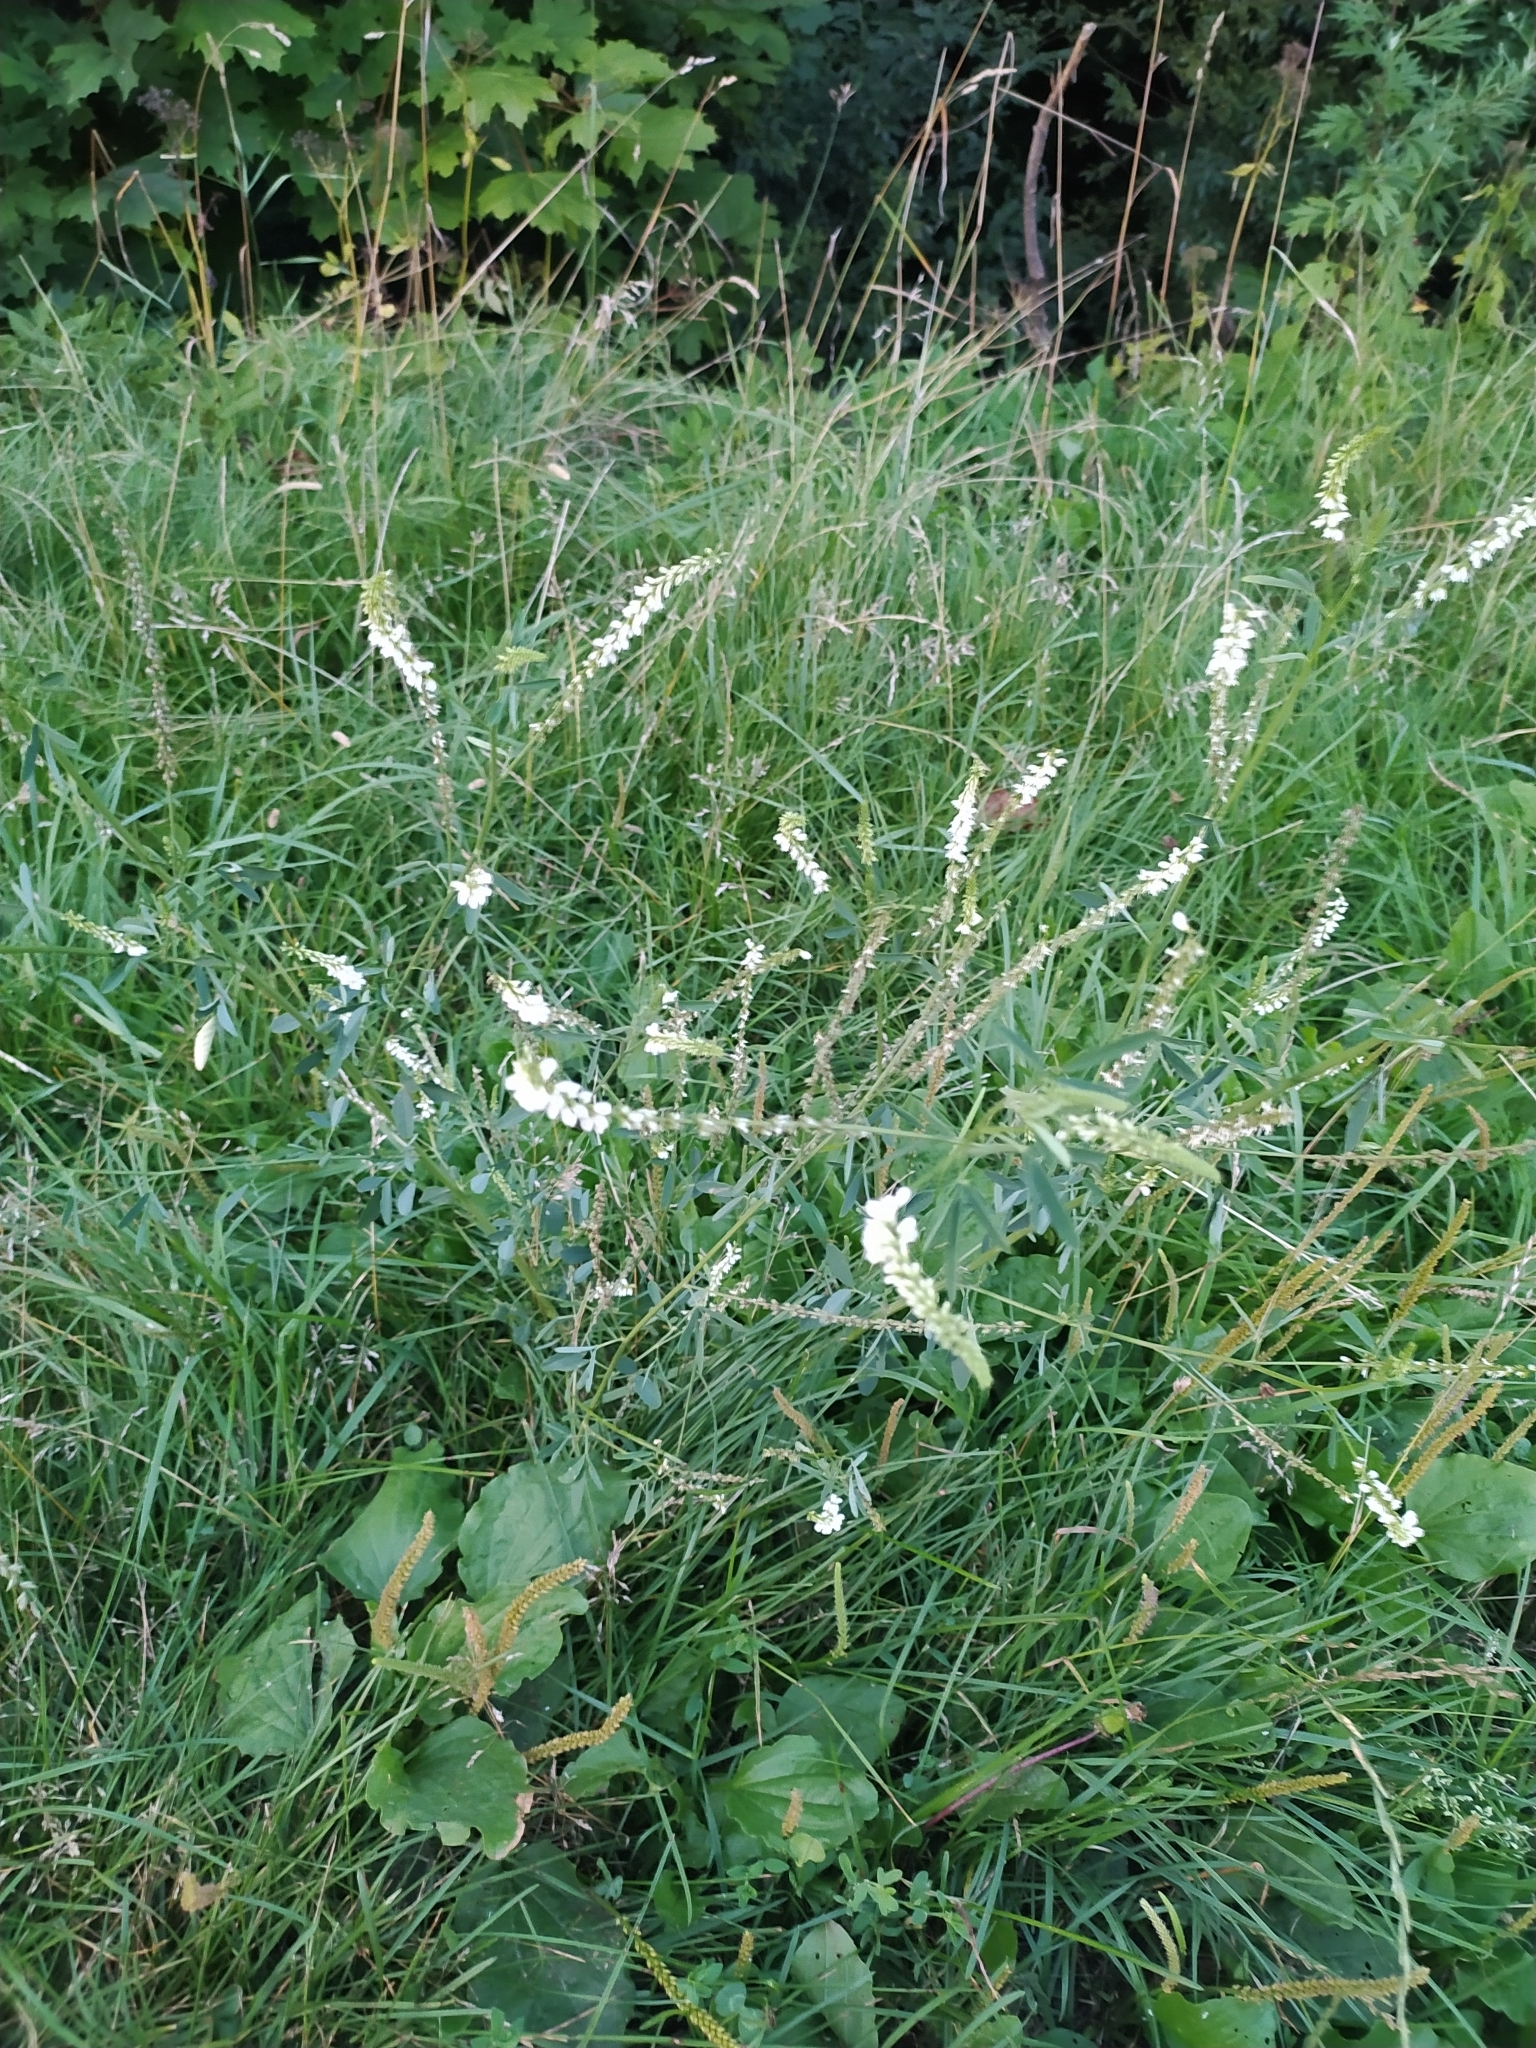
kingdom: Plantae
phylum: Tracheophyta
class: Magnoliopsida
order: Fabales
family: Fabaceae
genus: Melilotus
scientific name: Melilotus albus
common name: White melilot
